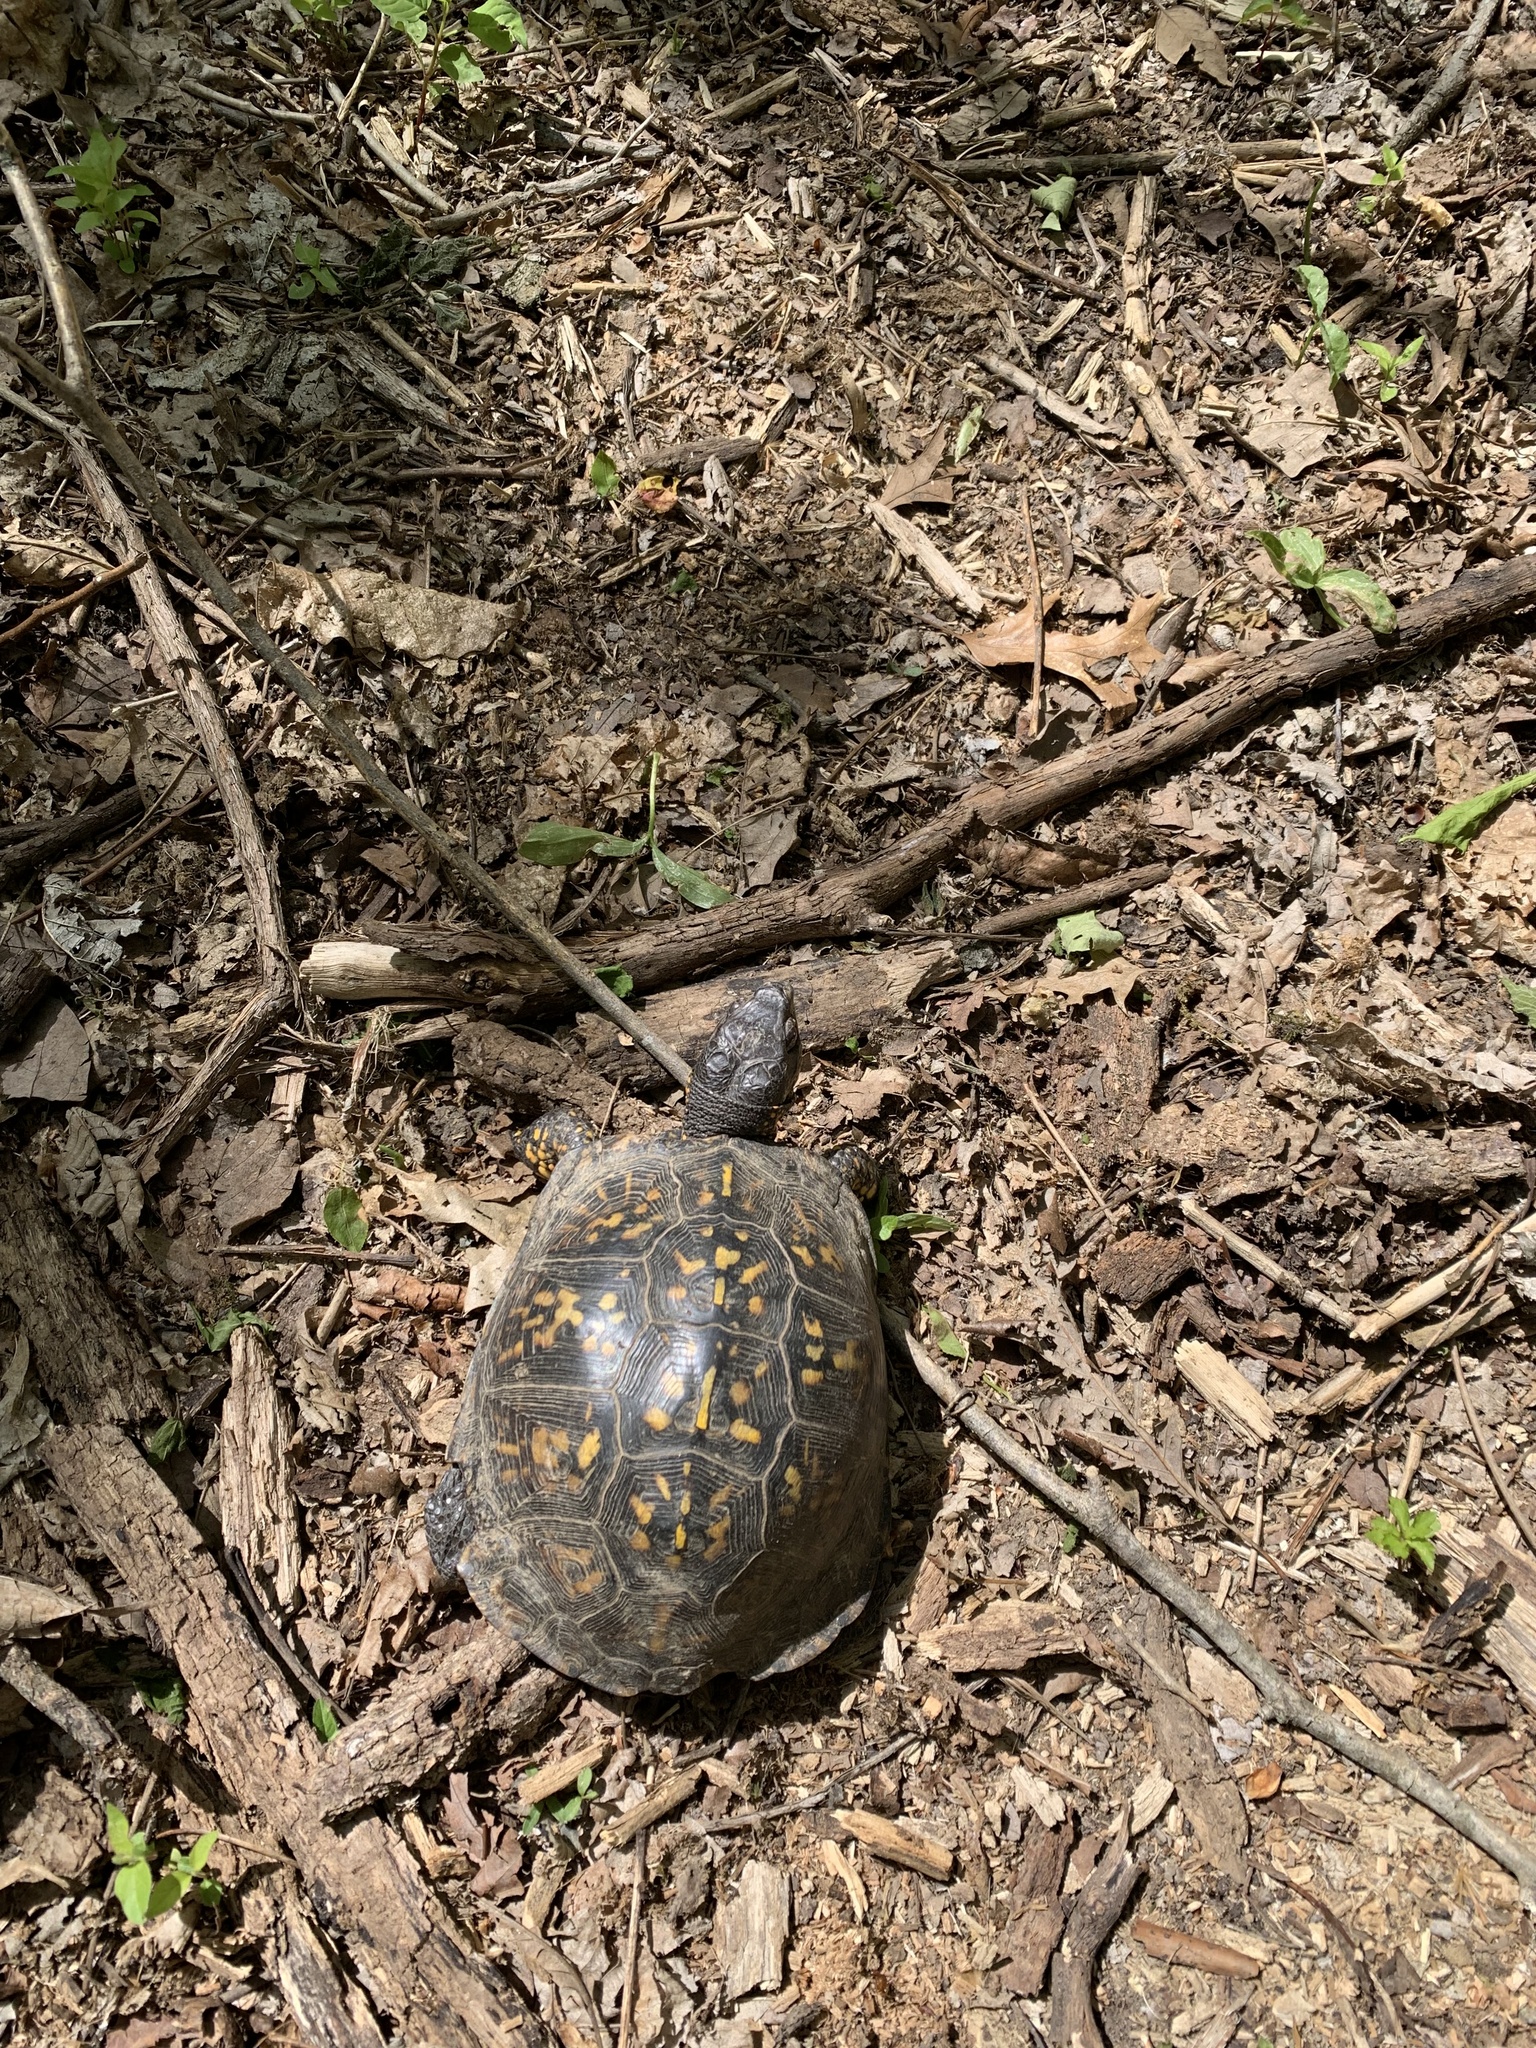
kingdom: Animalia
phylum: Chordata
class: Testudines
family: Emydidae
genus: Terrapene
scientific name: Terrapene carolina
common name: Common box turtle
